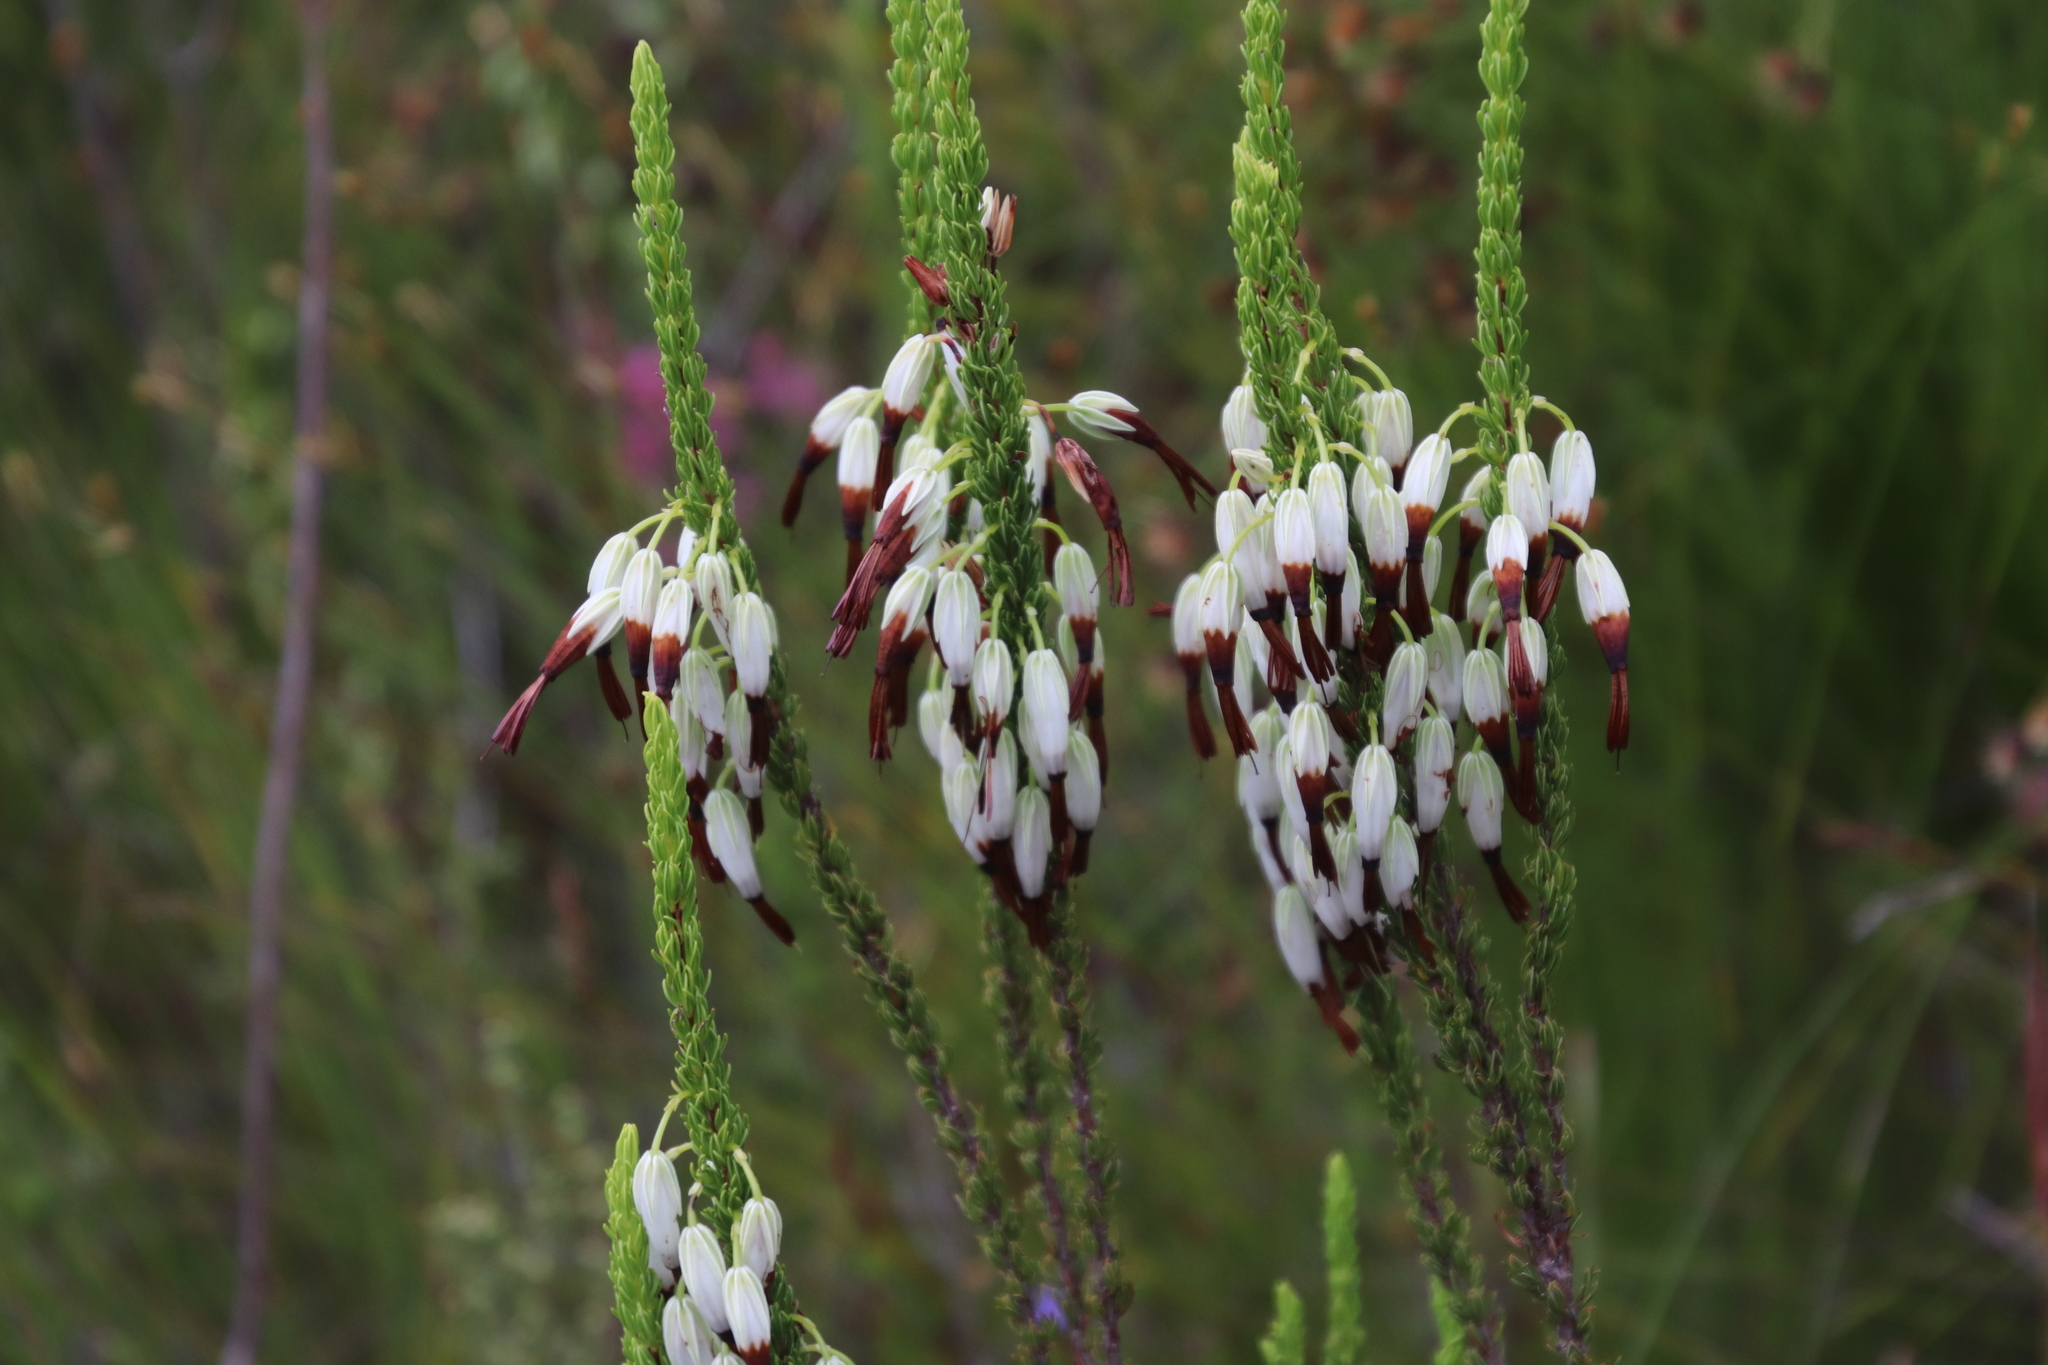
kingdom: Plantae
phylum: Tracheophyta
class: Magnoliopsida
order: Ericales
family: Ericaceae
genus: Erica
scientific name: Erica plukenetii
